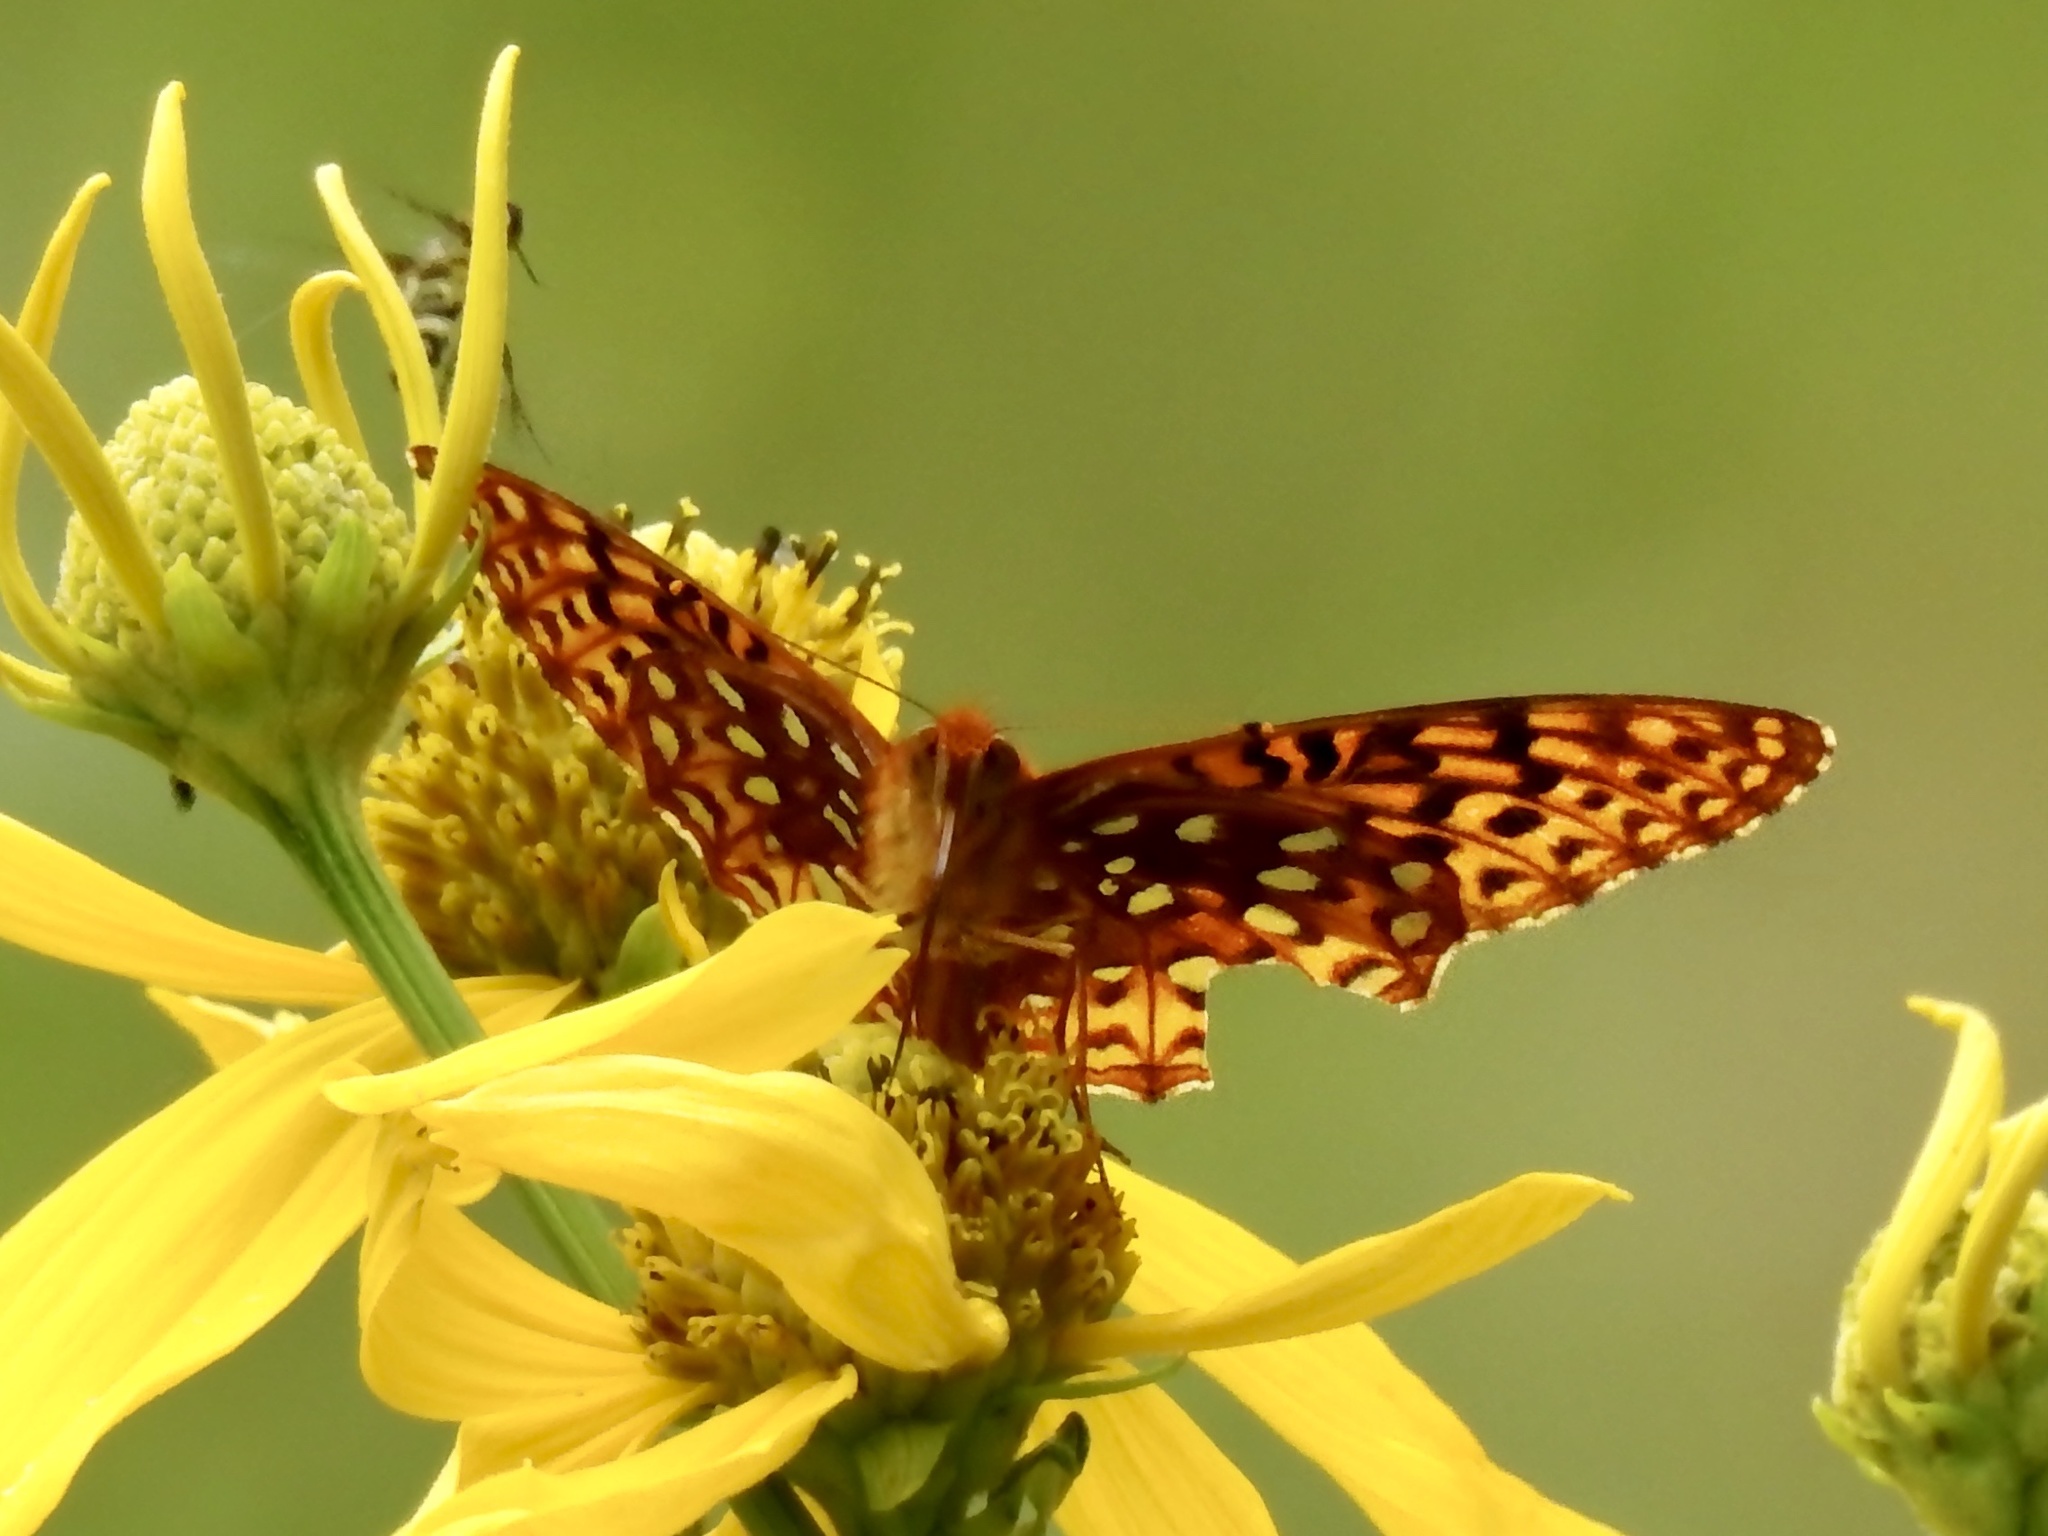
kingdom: Animalia
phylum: Arthropoda
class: Insecta
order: Lepidoptera
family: Nymphalidae
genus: Speyeria
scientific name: Speyeria atlantis
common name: Atlantis fritillary
